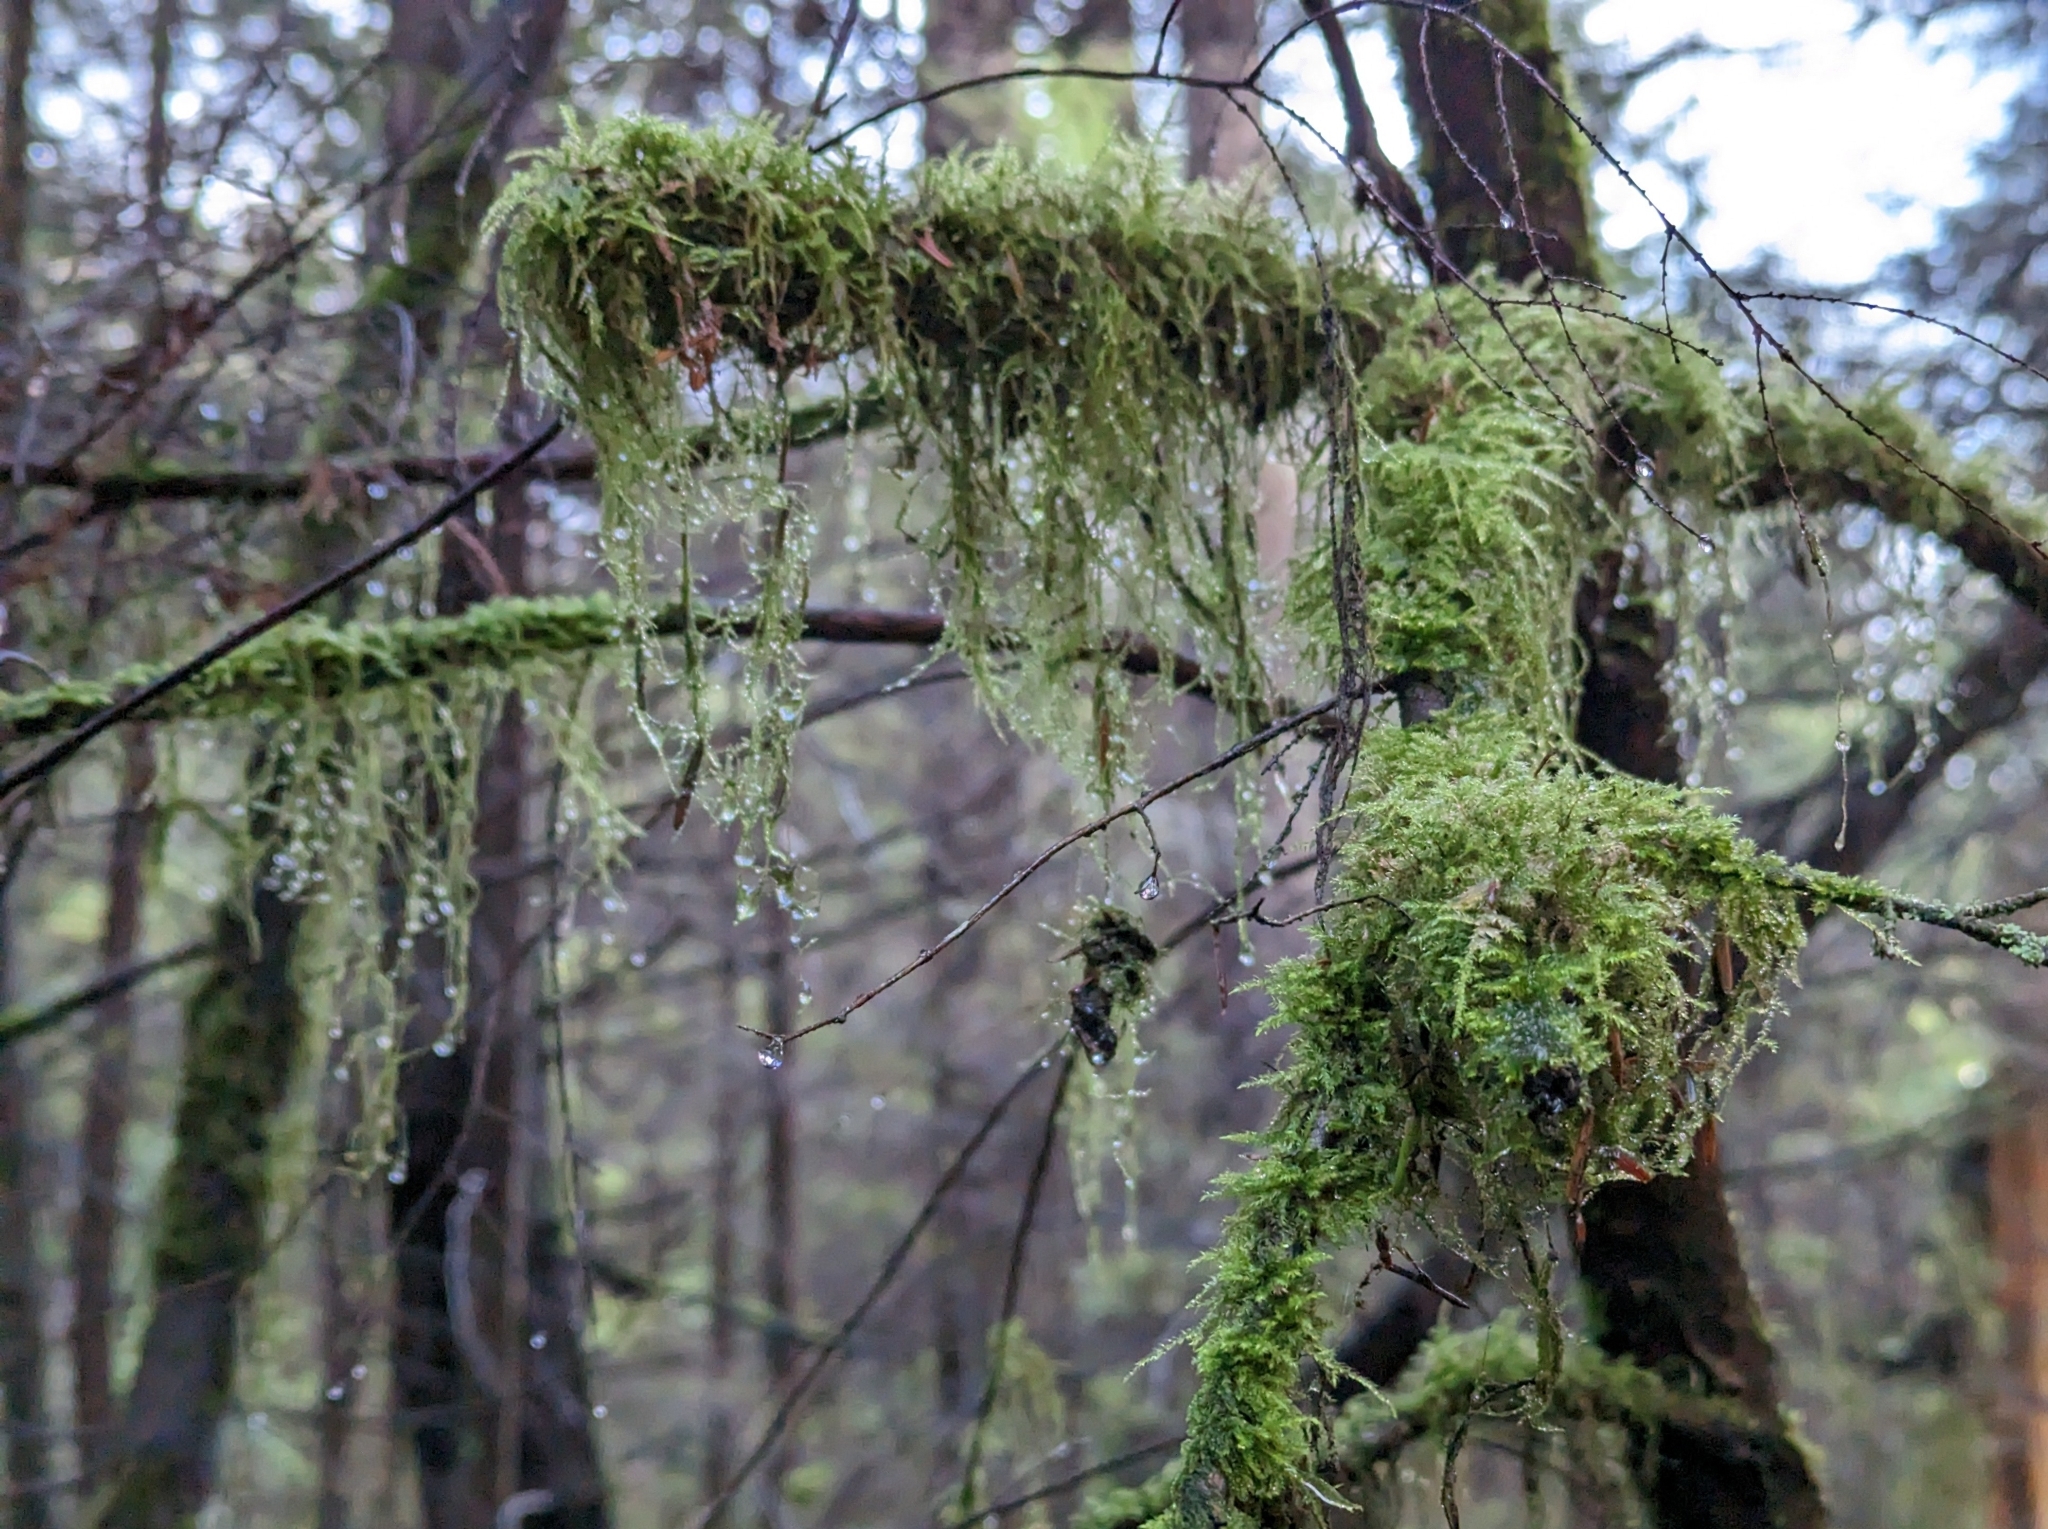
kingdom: Plantae
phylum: Bryophyta
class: Bryopsida
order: Hypnales
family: Lembophyllaceae
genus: Pseudisothecium
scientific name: Pseudisothecium stoloniferum
